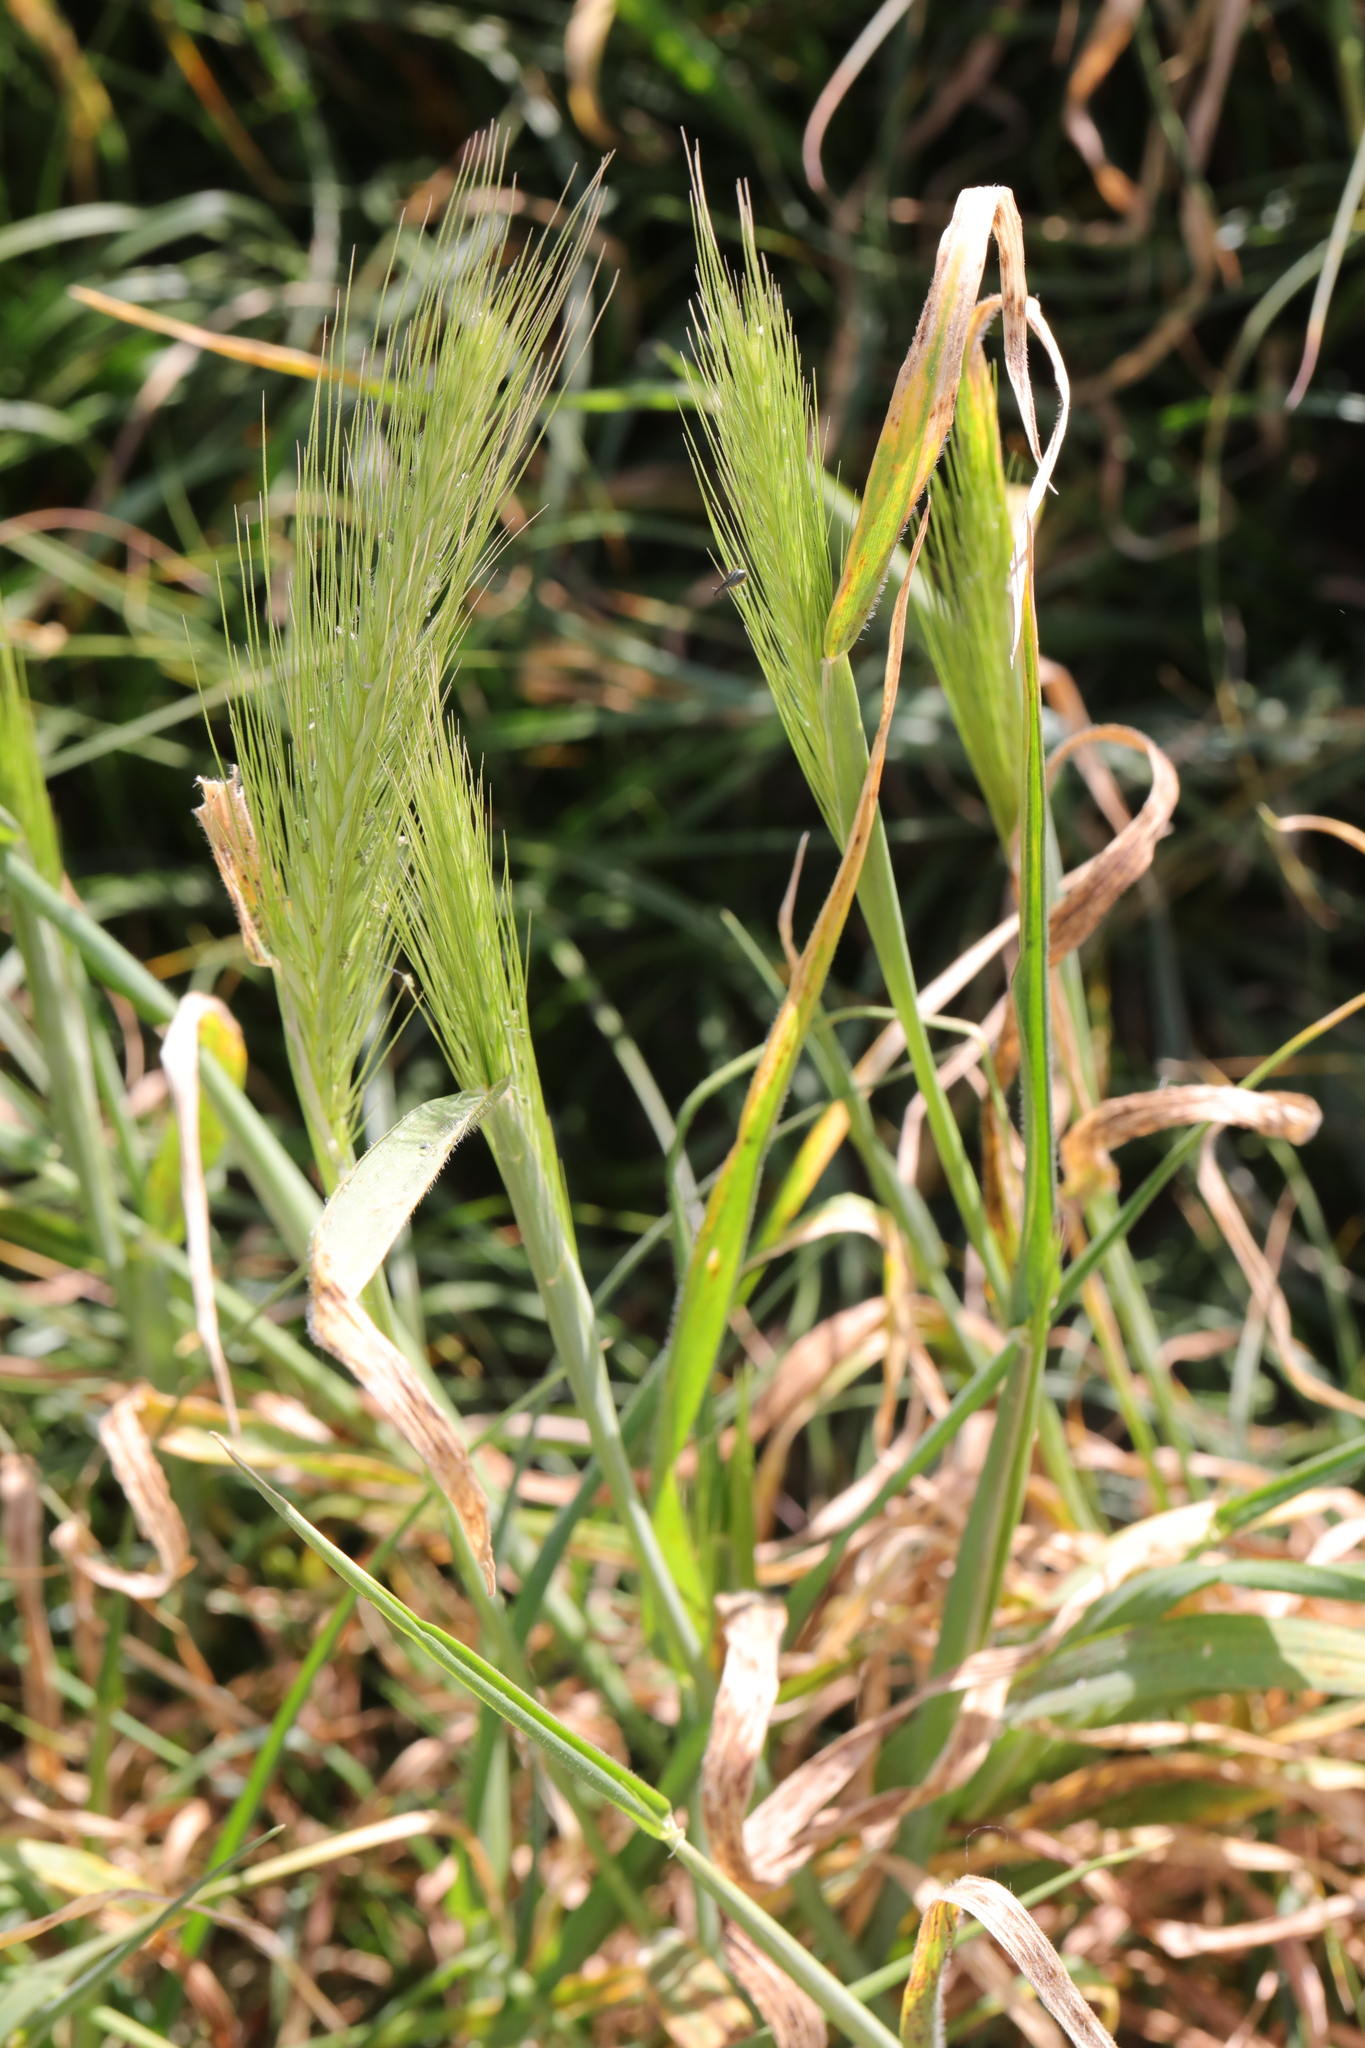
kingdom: Plantae
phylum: Tracheophyta
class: Liliopsida
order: Poales
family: Poaceae
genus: Hordeum
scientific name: Hordeum murinum
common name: Wall barley
